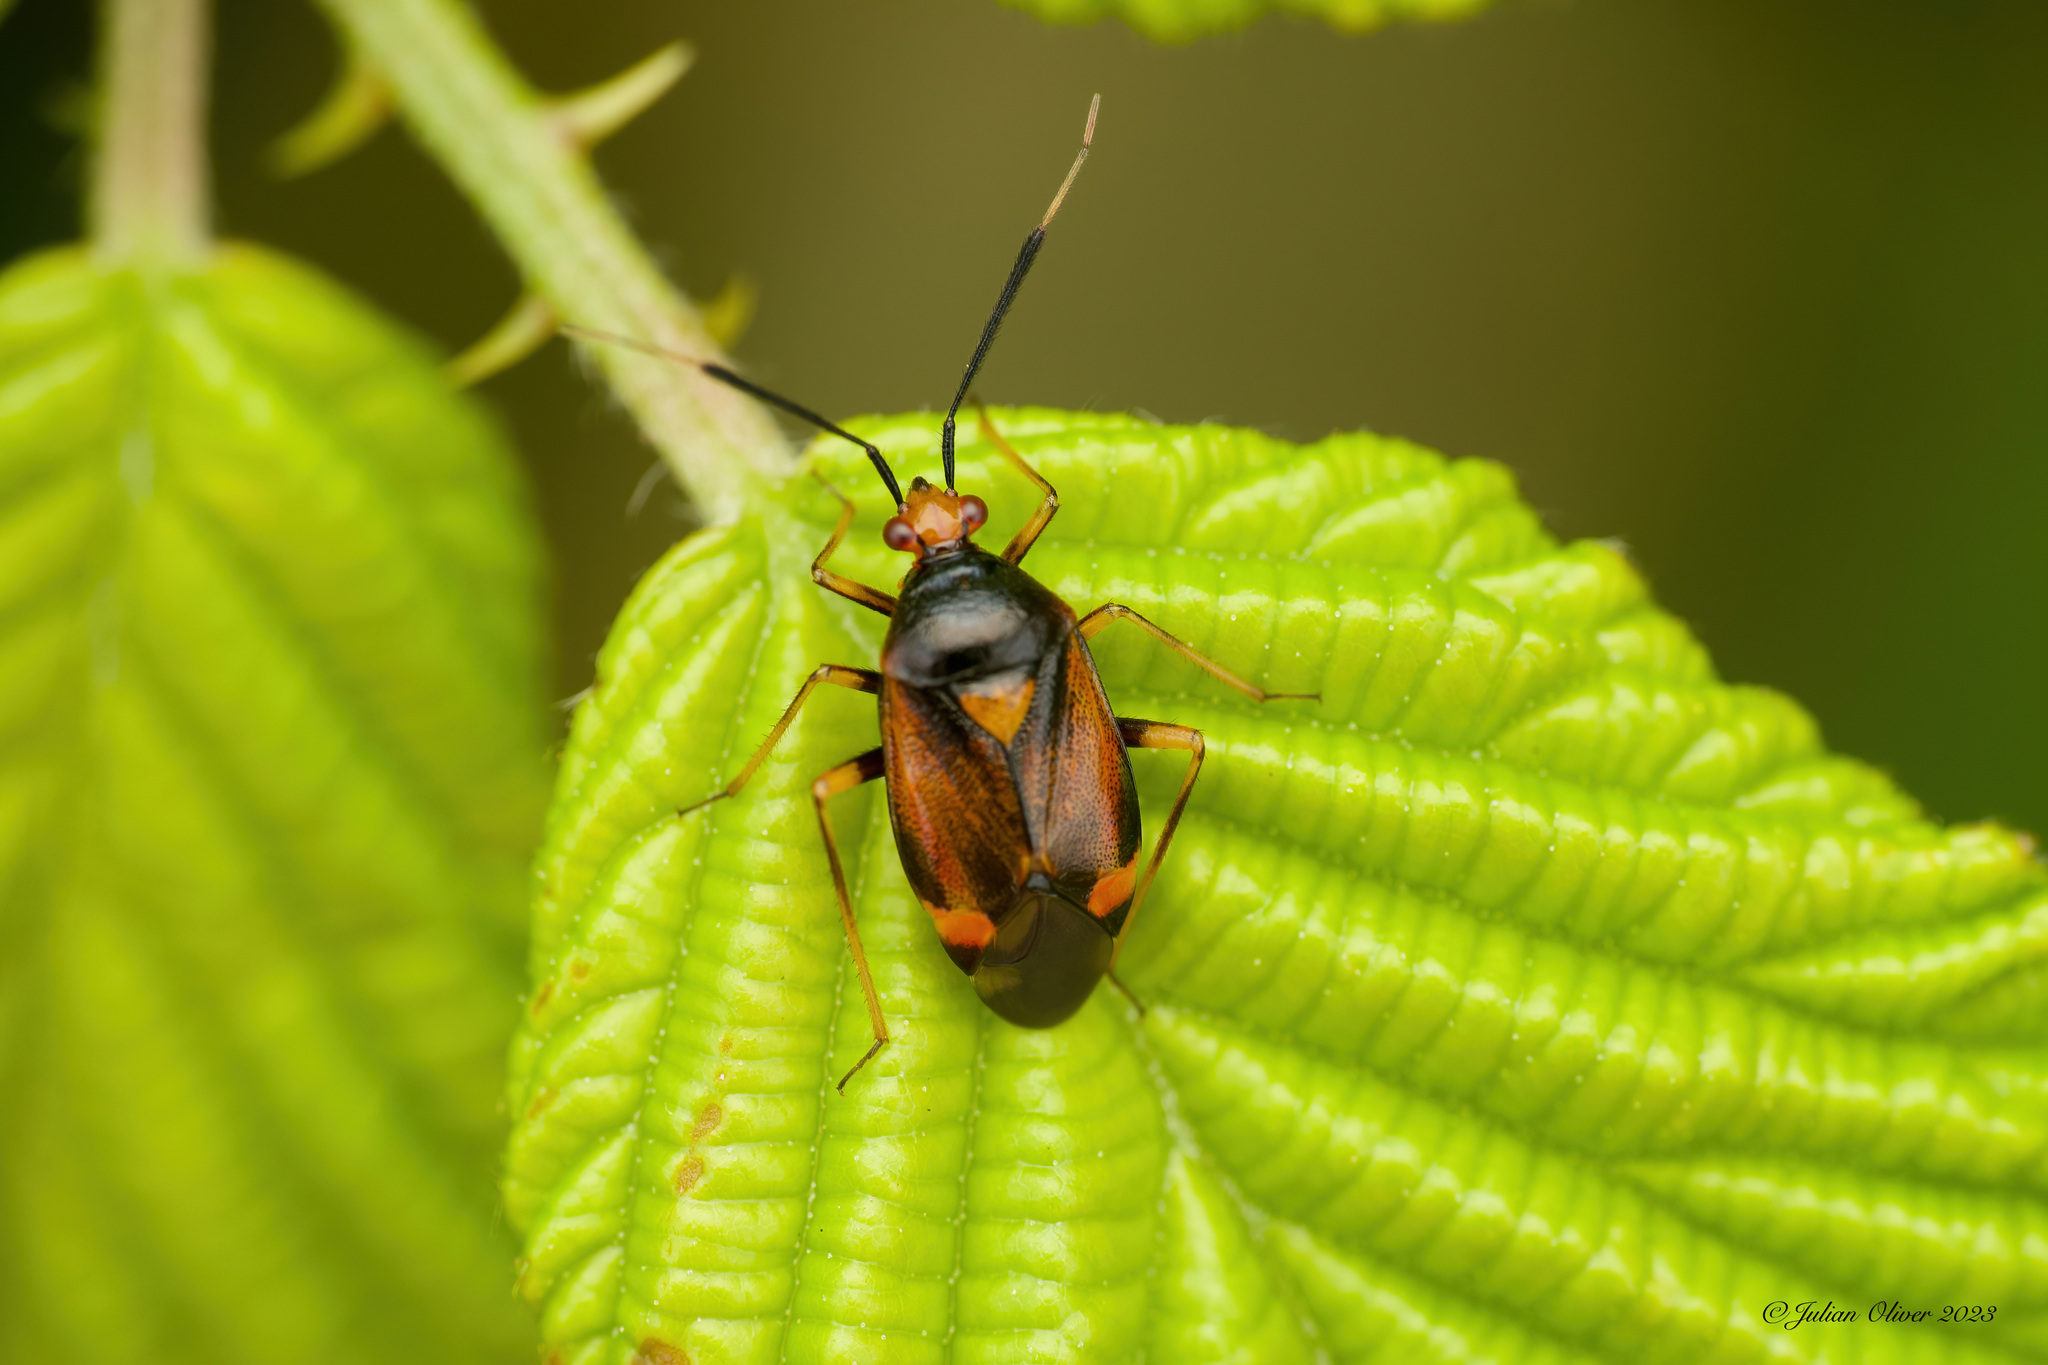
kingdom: Animalia
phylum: Arthropoda
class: Insecta
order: Hemiptera
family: Miridae
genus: Deraeocoris
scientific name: Deraeocoris ruber
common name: Plant bug
